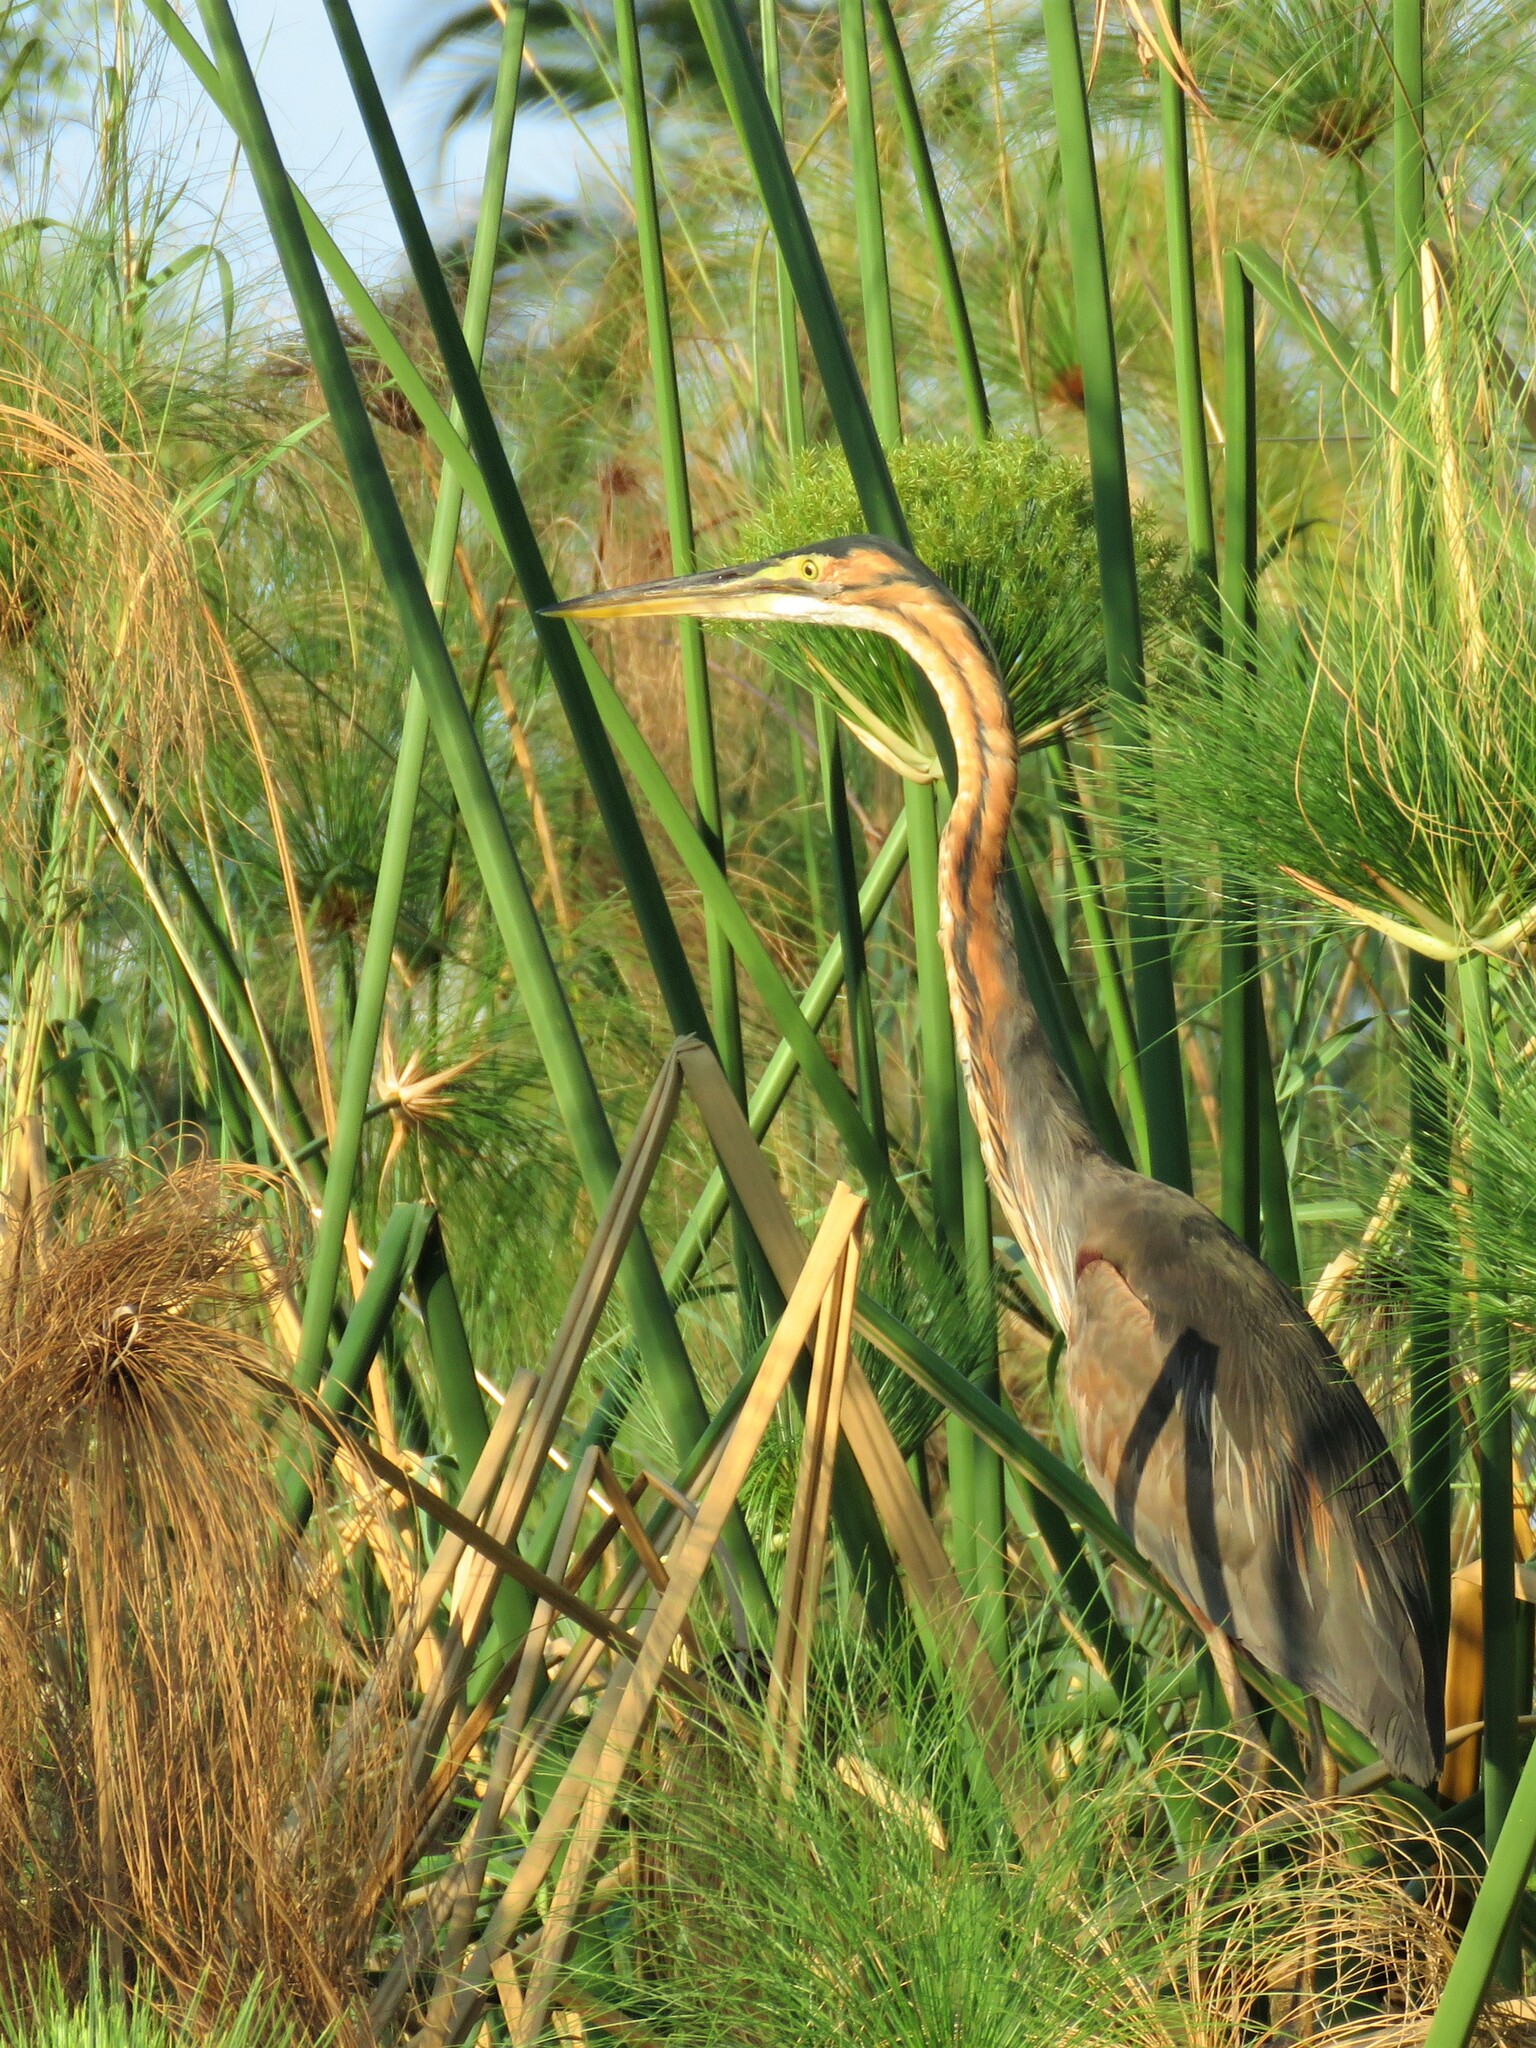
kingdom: Animalia
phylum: Chordata
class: Aves
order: Pelecaniformes
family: Ardeidae
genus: Ardea
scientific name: Ardea purpurea
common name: Purple heron
